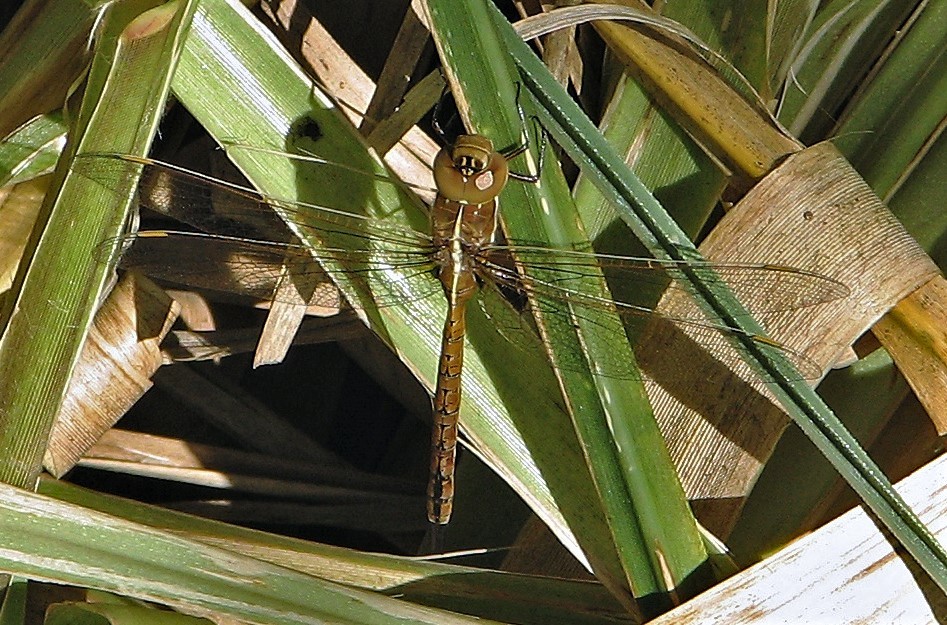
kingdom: Animalia
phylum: Arthropoda
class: Insecta
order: Odonata
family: Aeshnidae
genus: Rhionaeschna
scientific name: Rhionaeschna bonariensis
